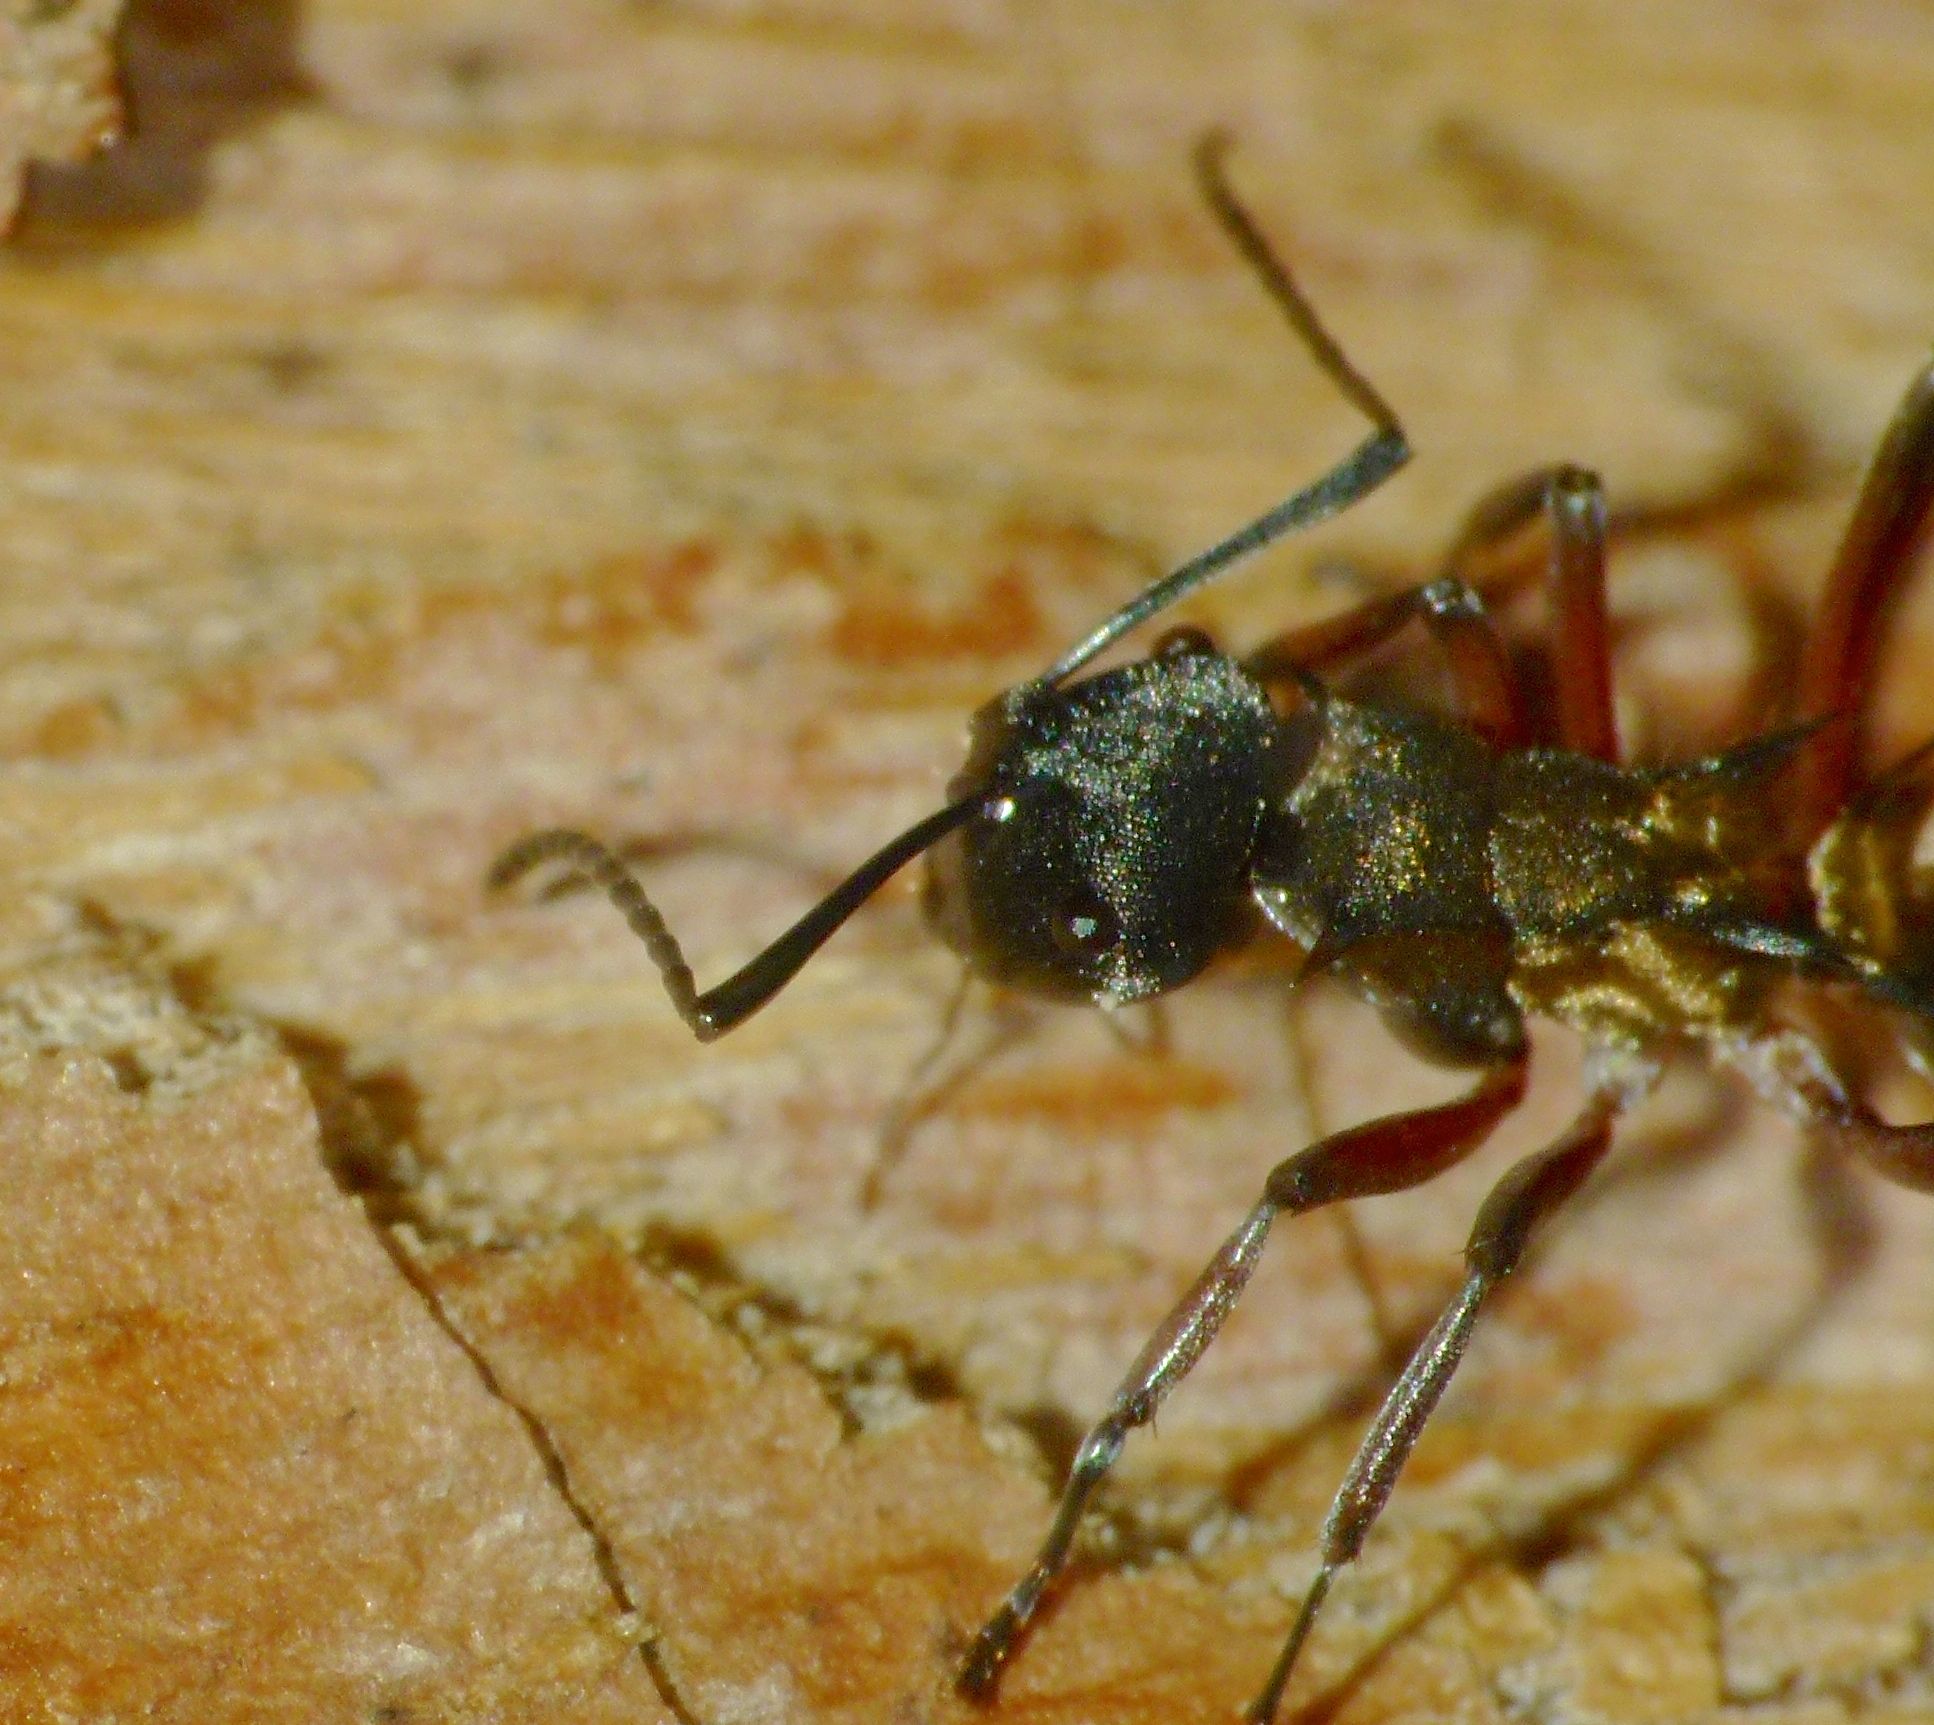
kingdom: Animalia
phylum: Arthropoda
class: Insecta
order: Hymenoptera
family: Formicidae
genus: Polyrhachis
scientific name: Polyrhachis rufifemur
